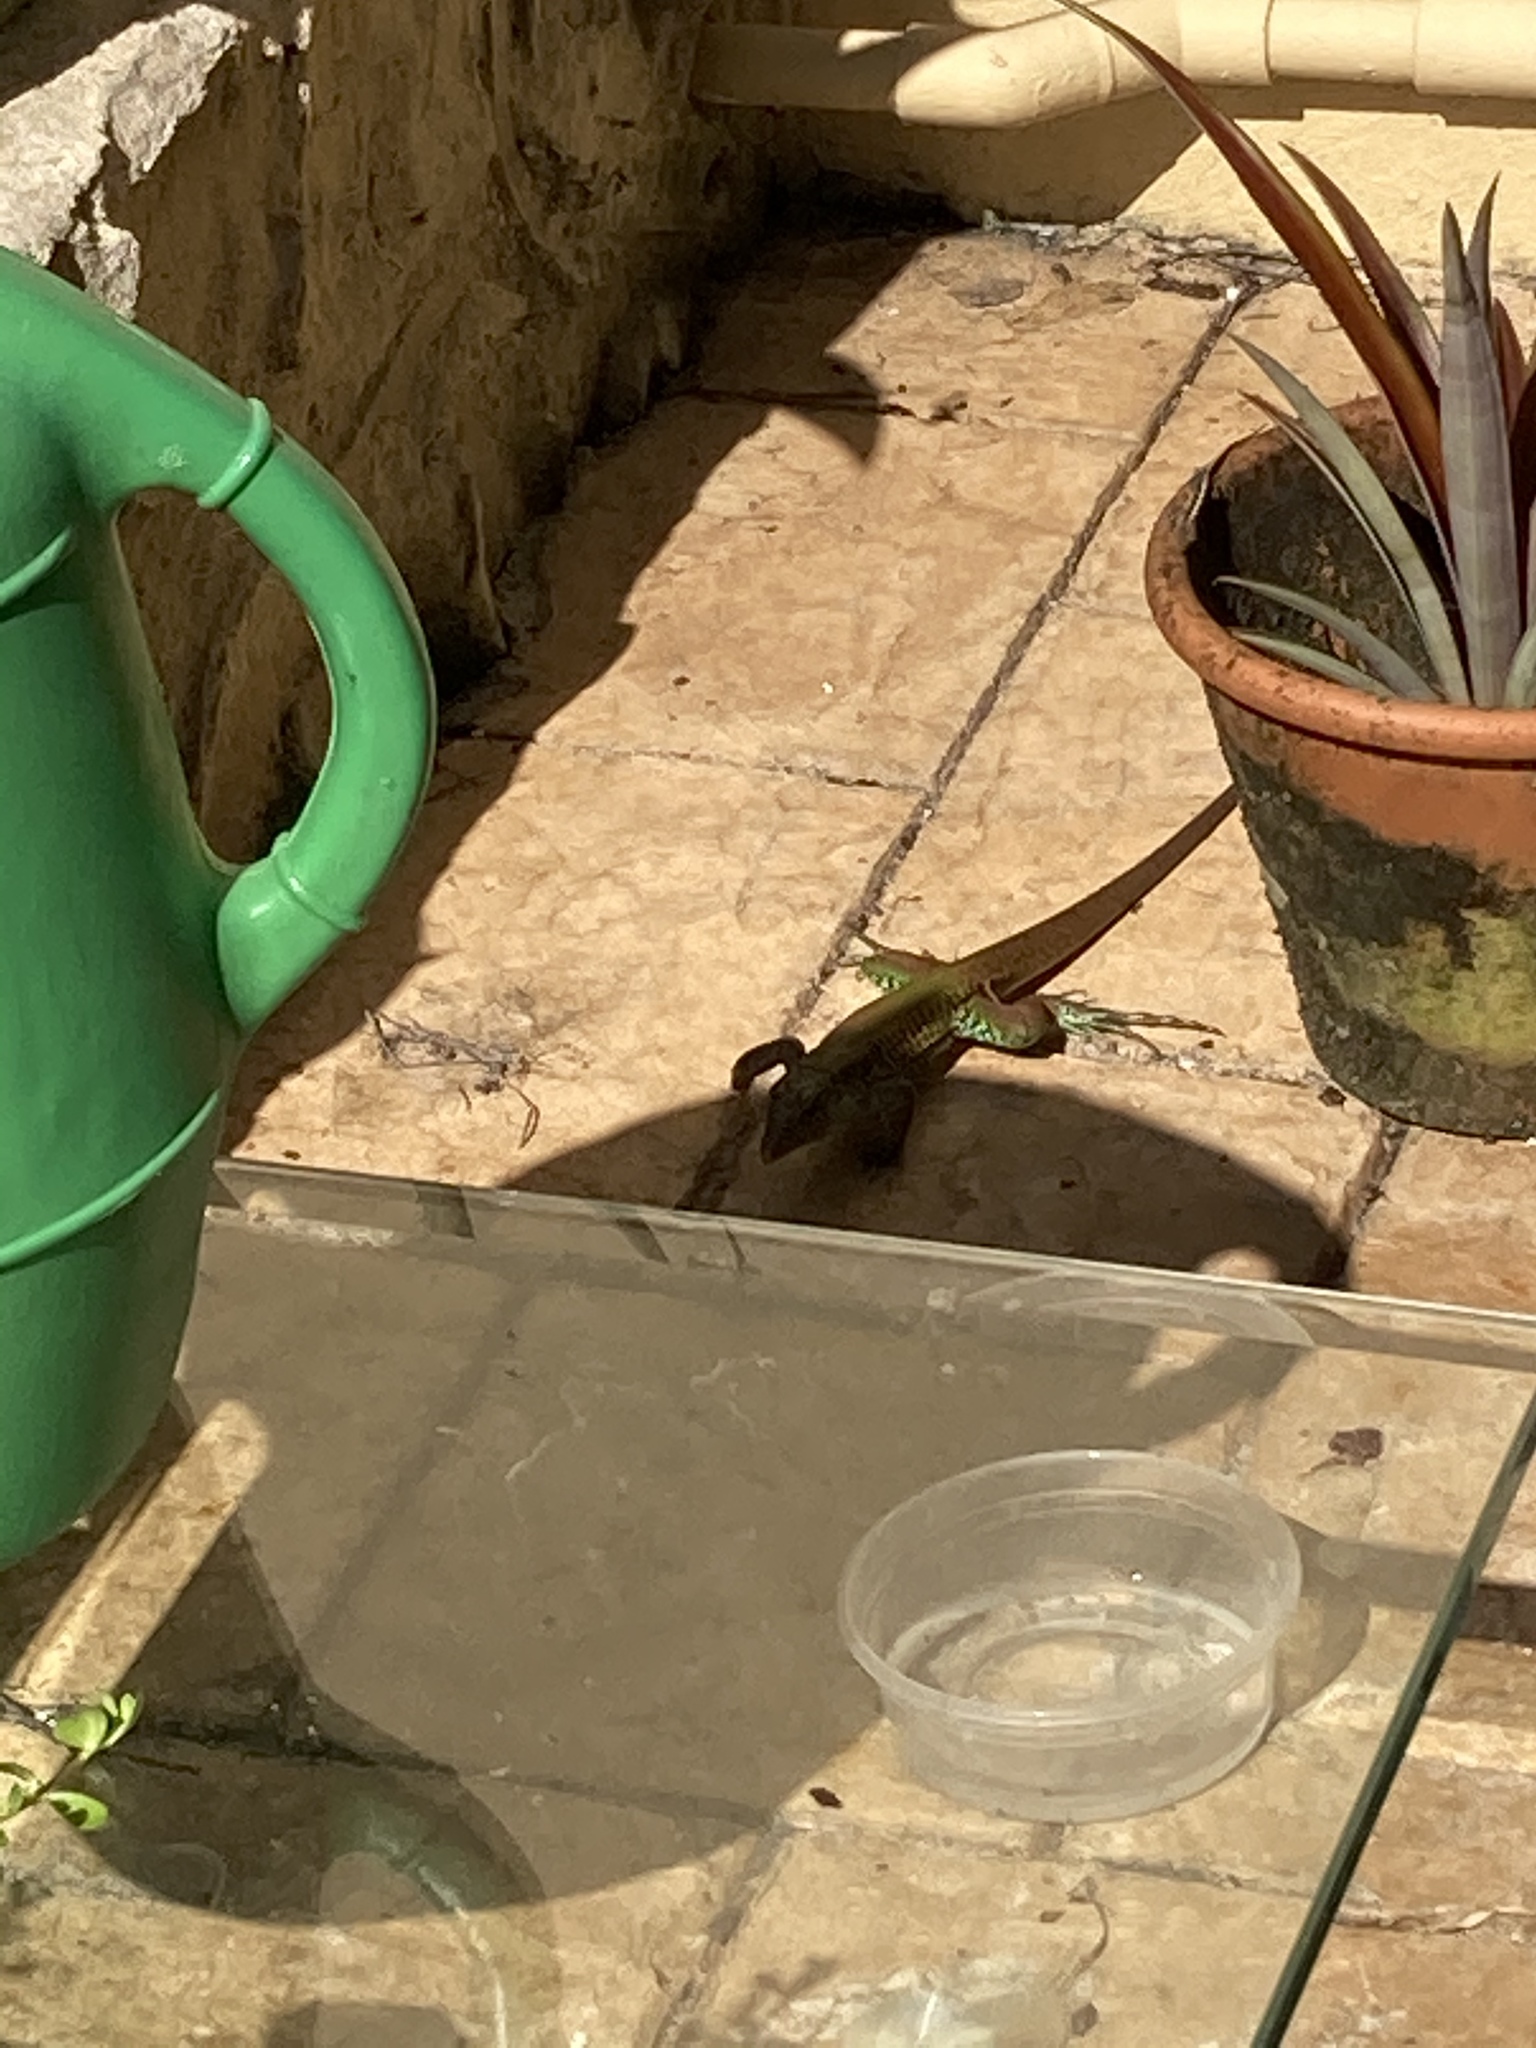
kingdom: Animalia
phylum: Chordata
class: Squamata
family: Teiidae
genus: Ameiva
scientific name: Ameiva ameiva
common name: Giant ameiva
